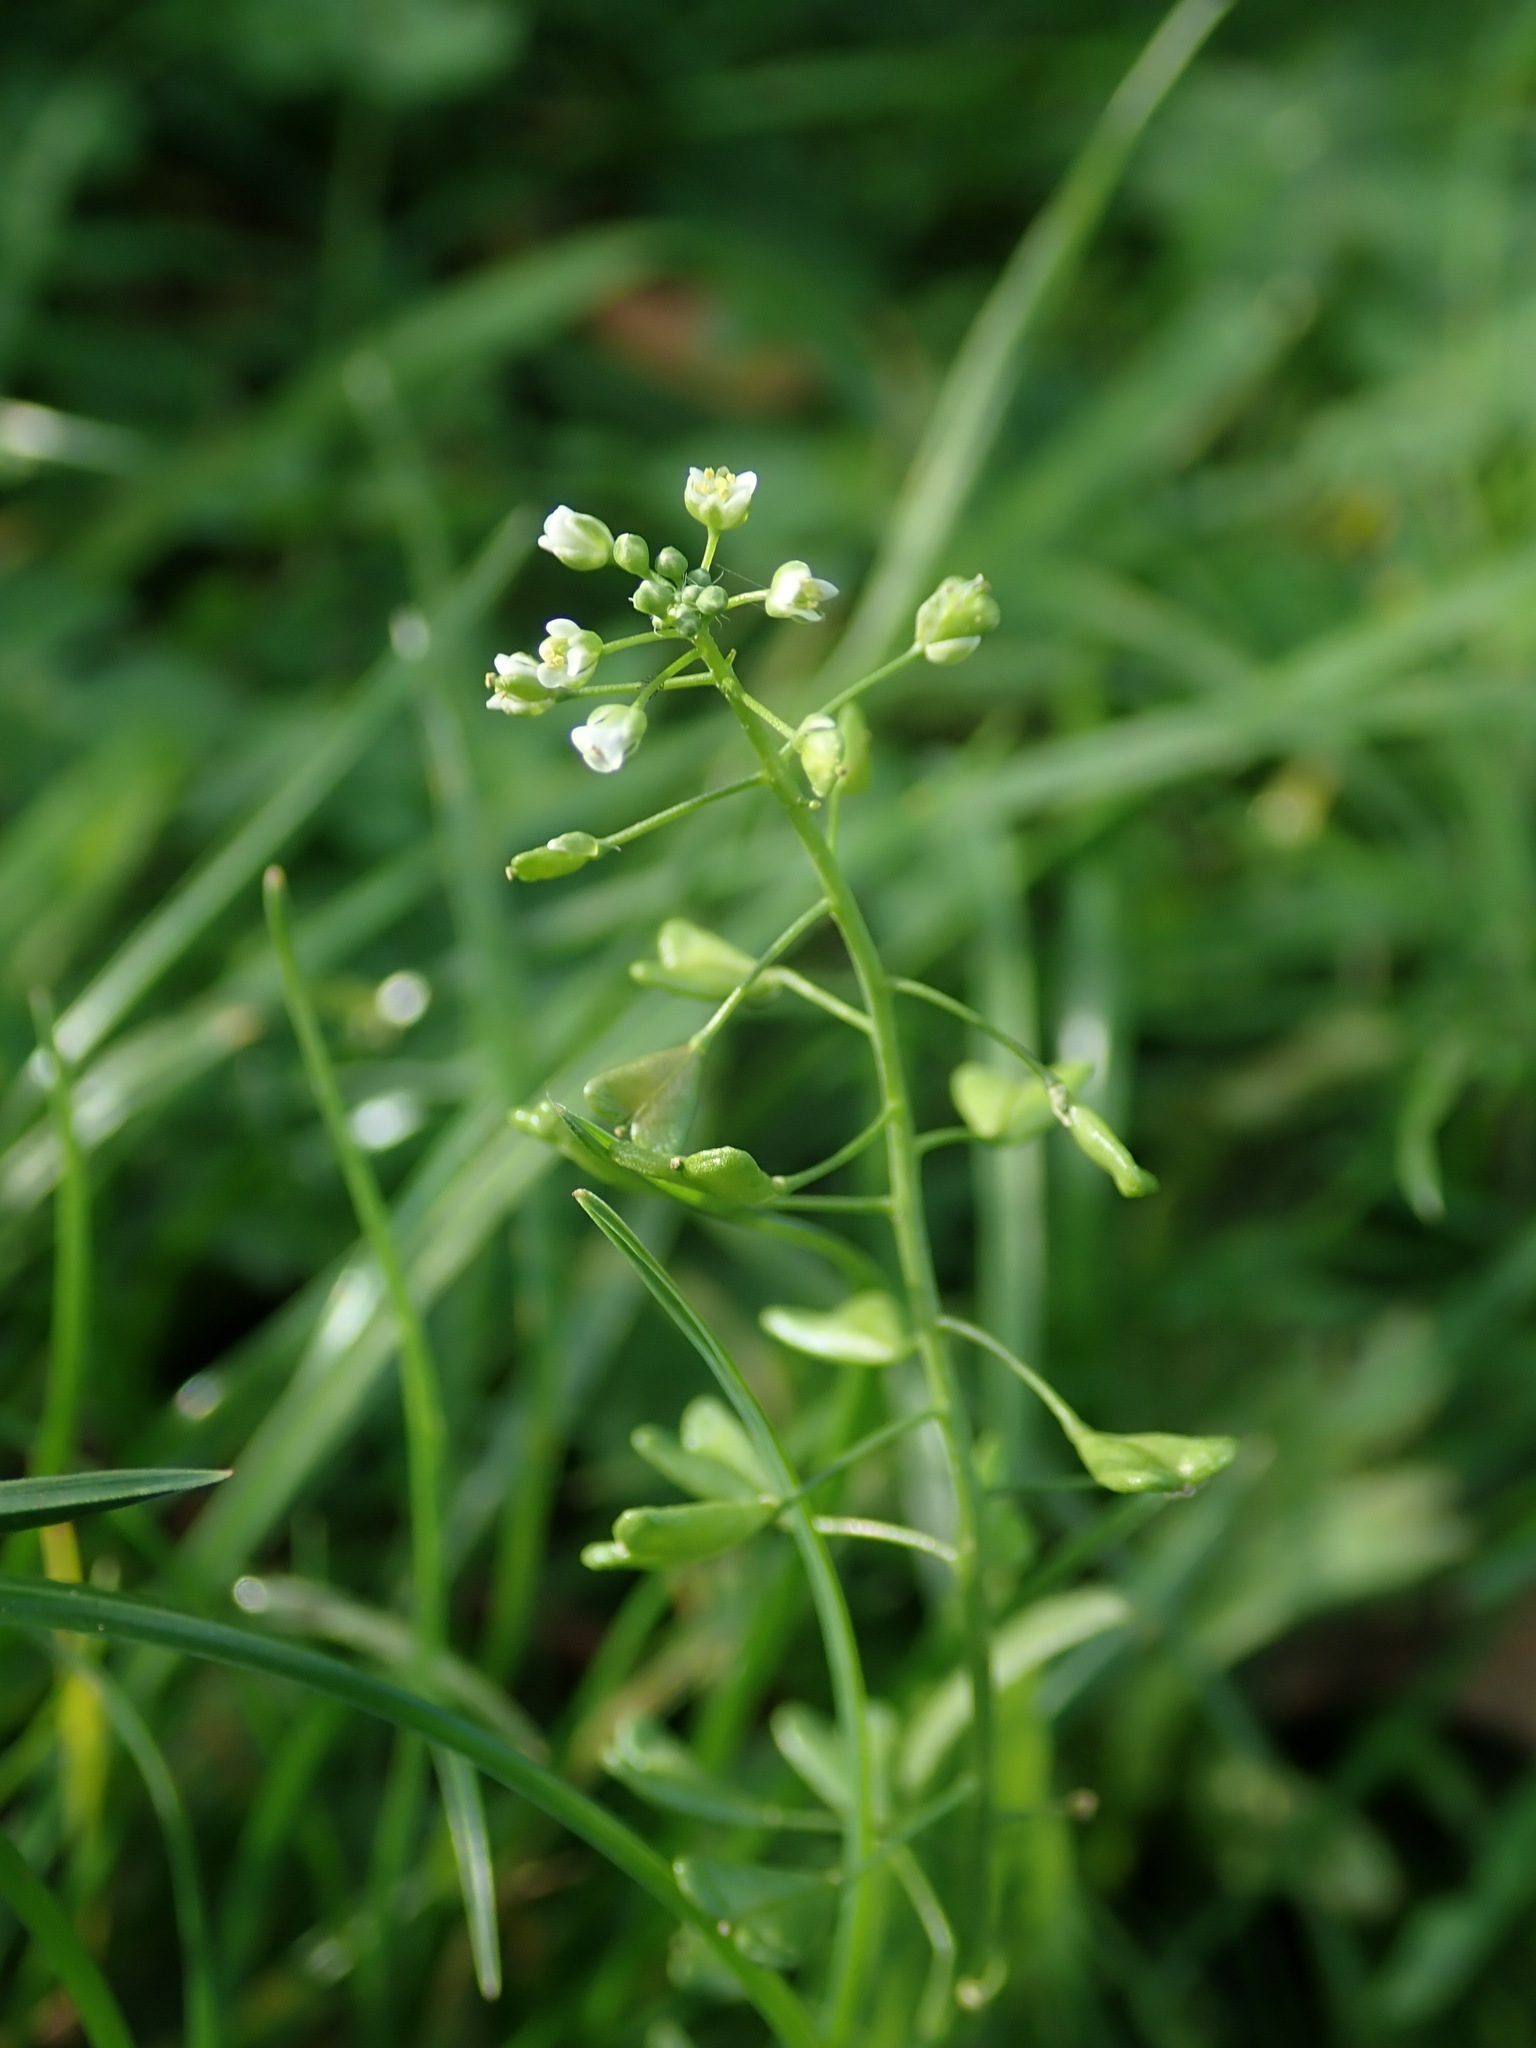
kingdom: Plantae
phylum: Tracheophyta
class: Magnoliopsida
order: Brassicales
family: Brassicaceae
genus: Capsella
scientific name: Capsella bursa-pastoris
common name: Shepherd's purse
